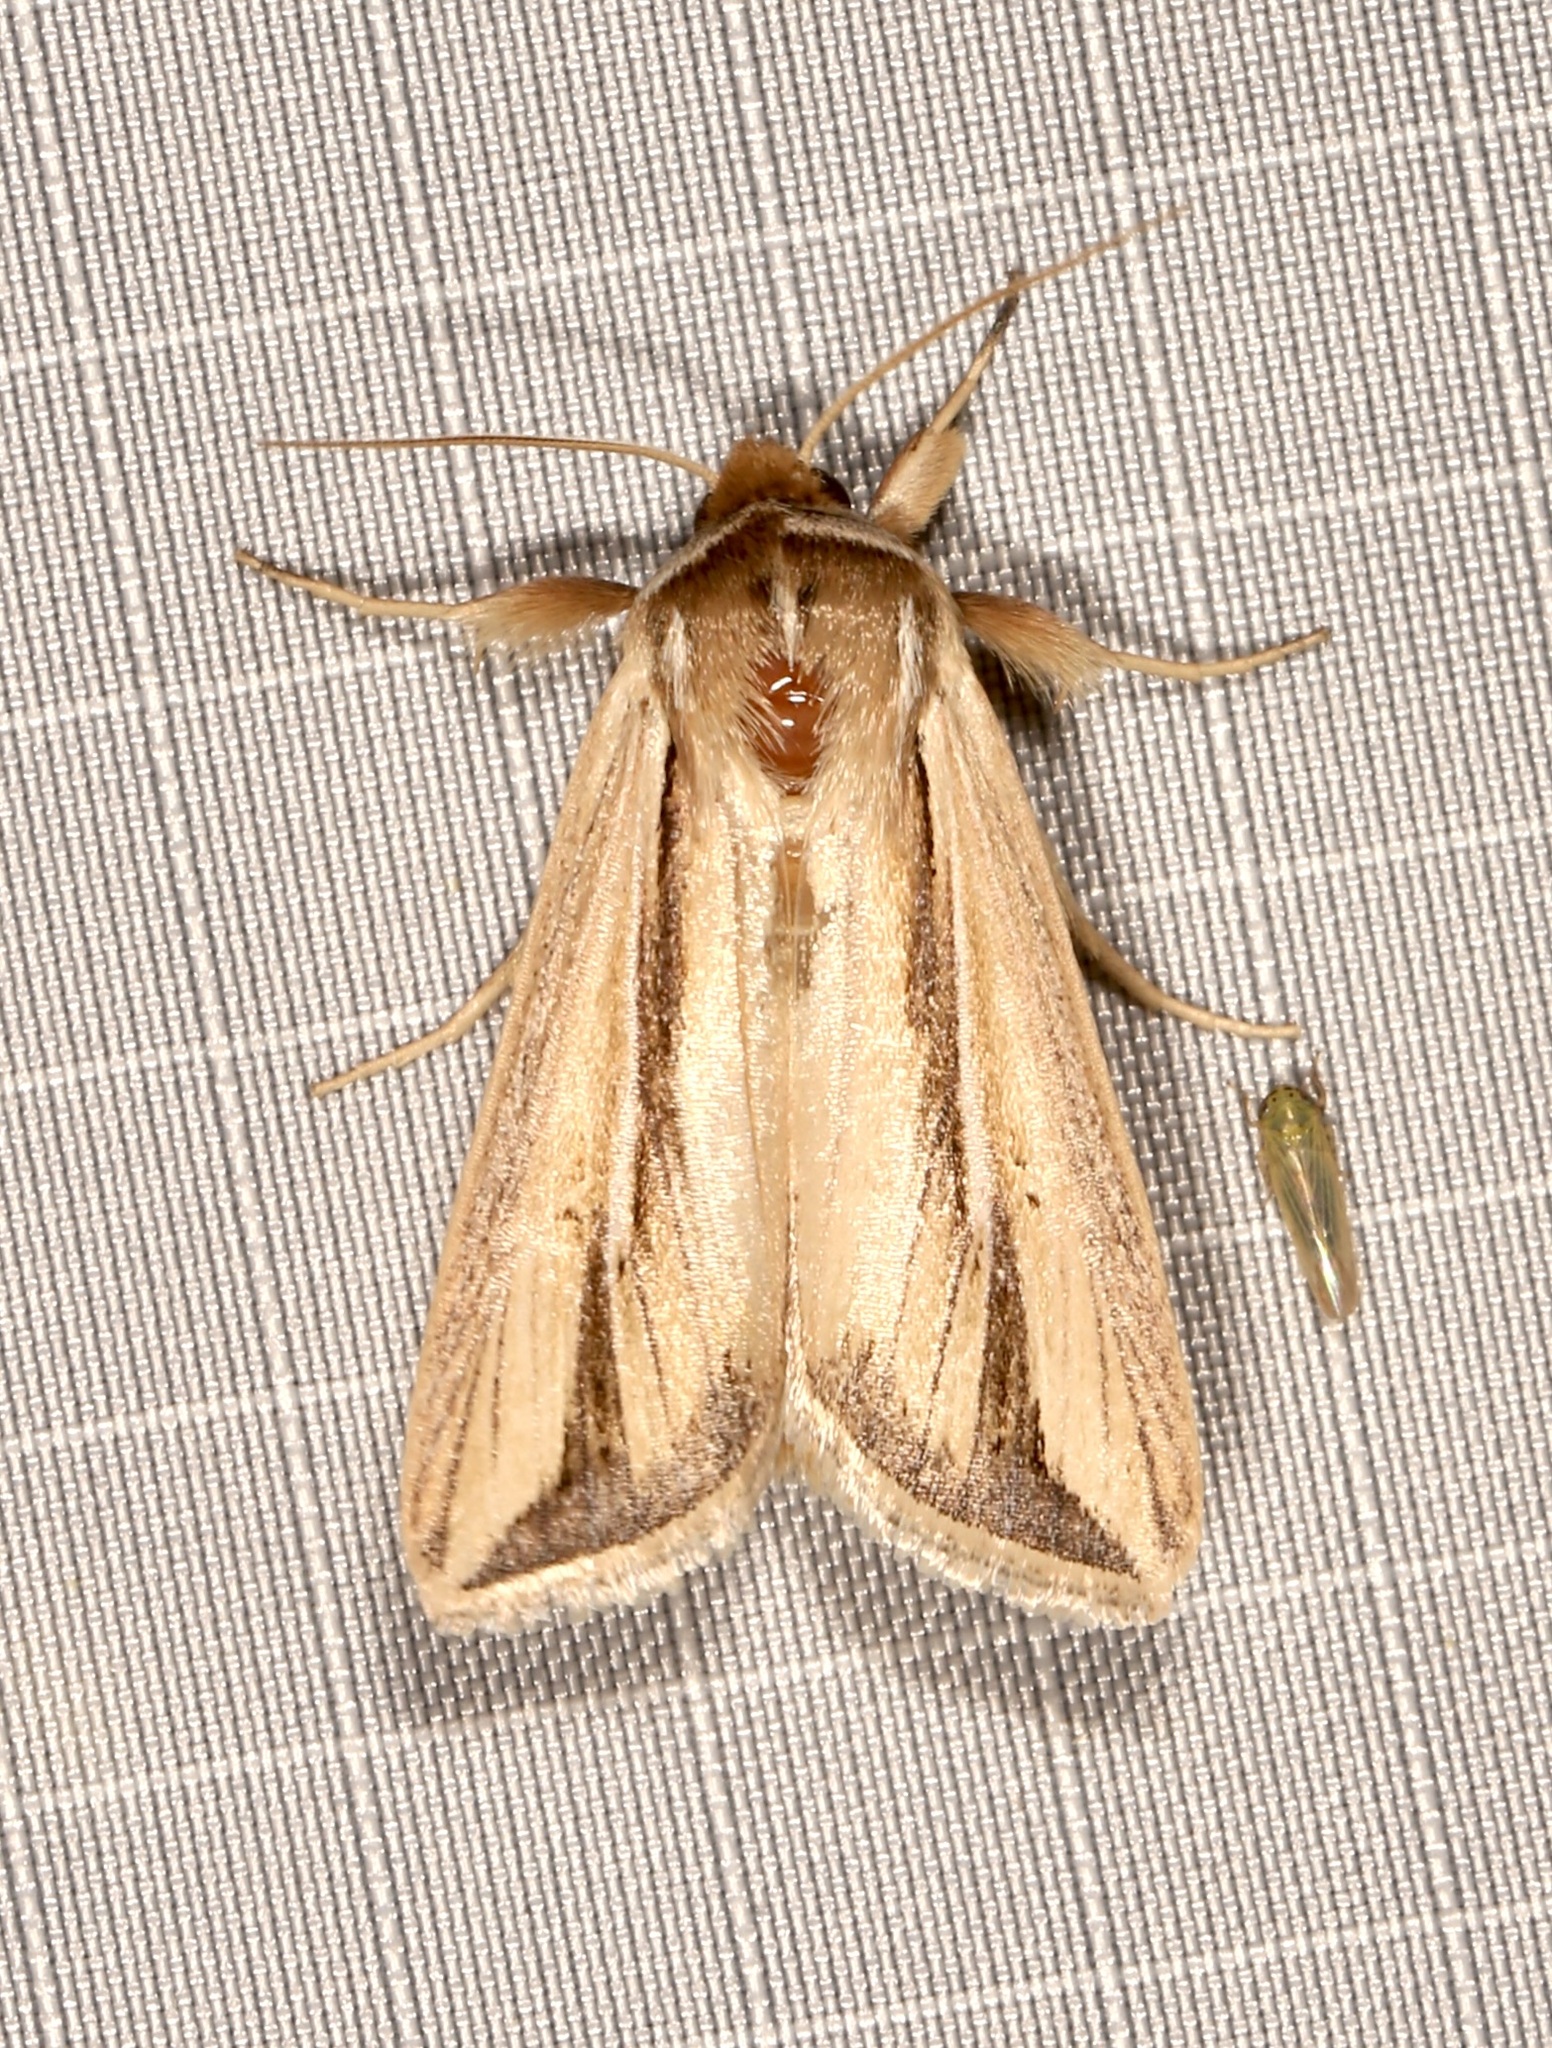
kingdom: Animalia
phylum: Arthropoda
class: Insecta
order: Lepidoptera
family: Noctuidae
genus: Dargida
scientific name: Dargida diffusa
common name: Wheat head armyworm
